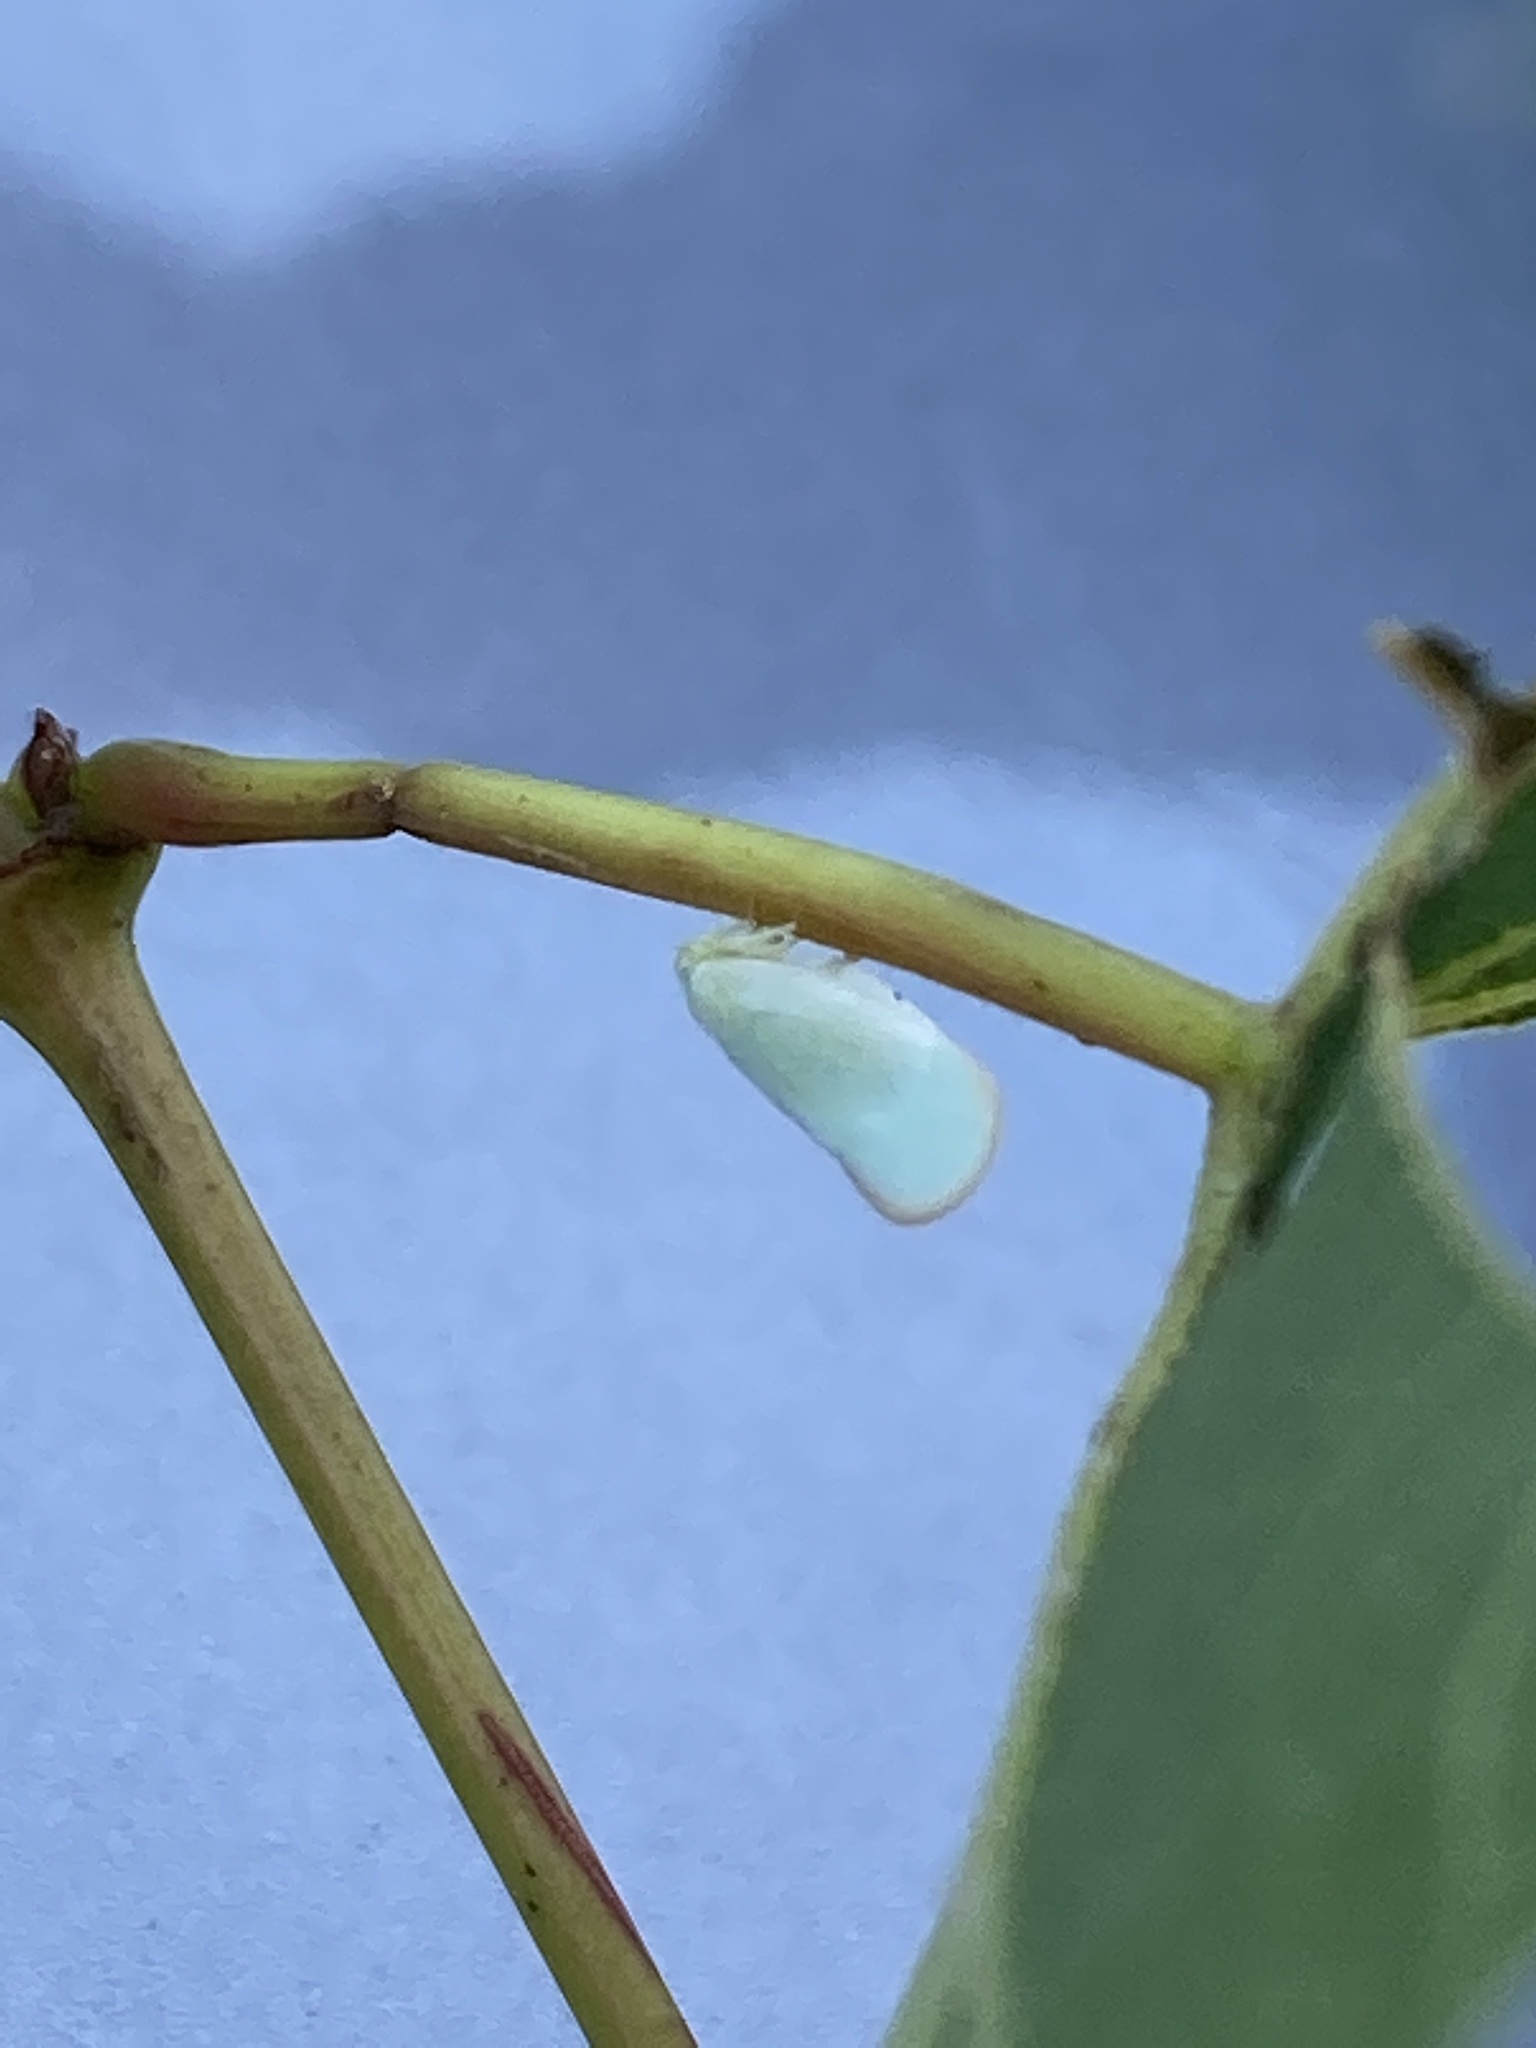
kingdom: Animalia
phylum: Arthropoda
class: Insecta
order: Hemiptera
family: Flatidae
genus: Ormenoides
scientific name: Ormenoides venusta
